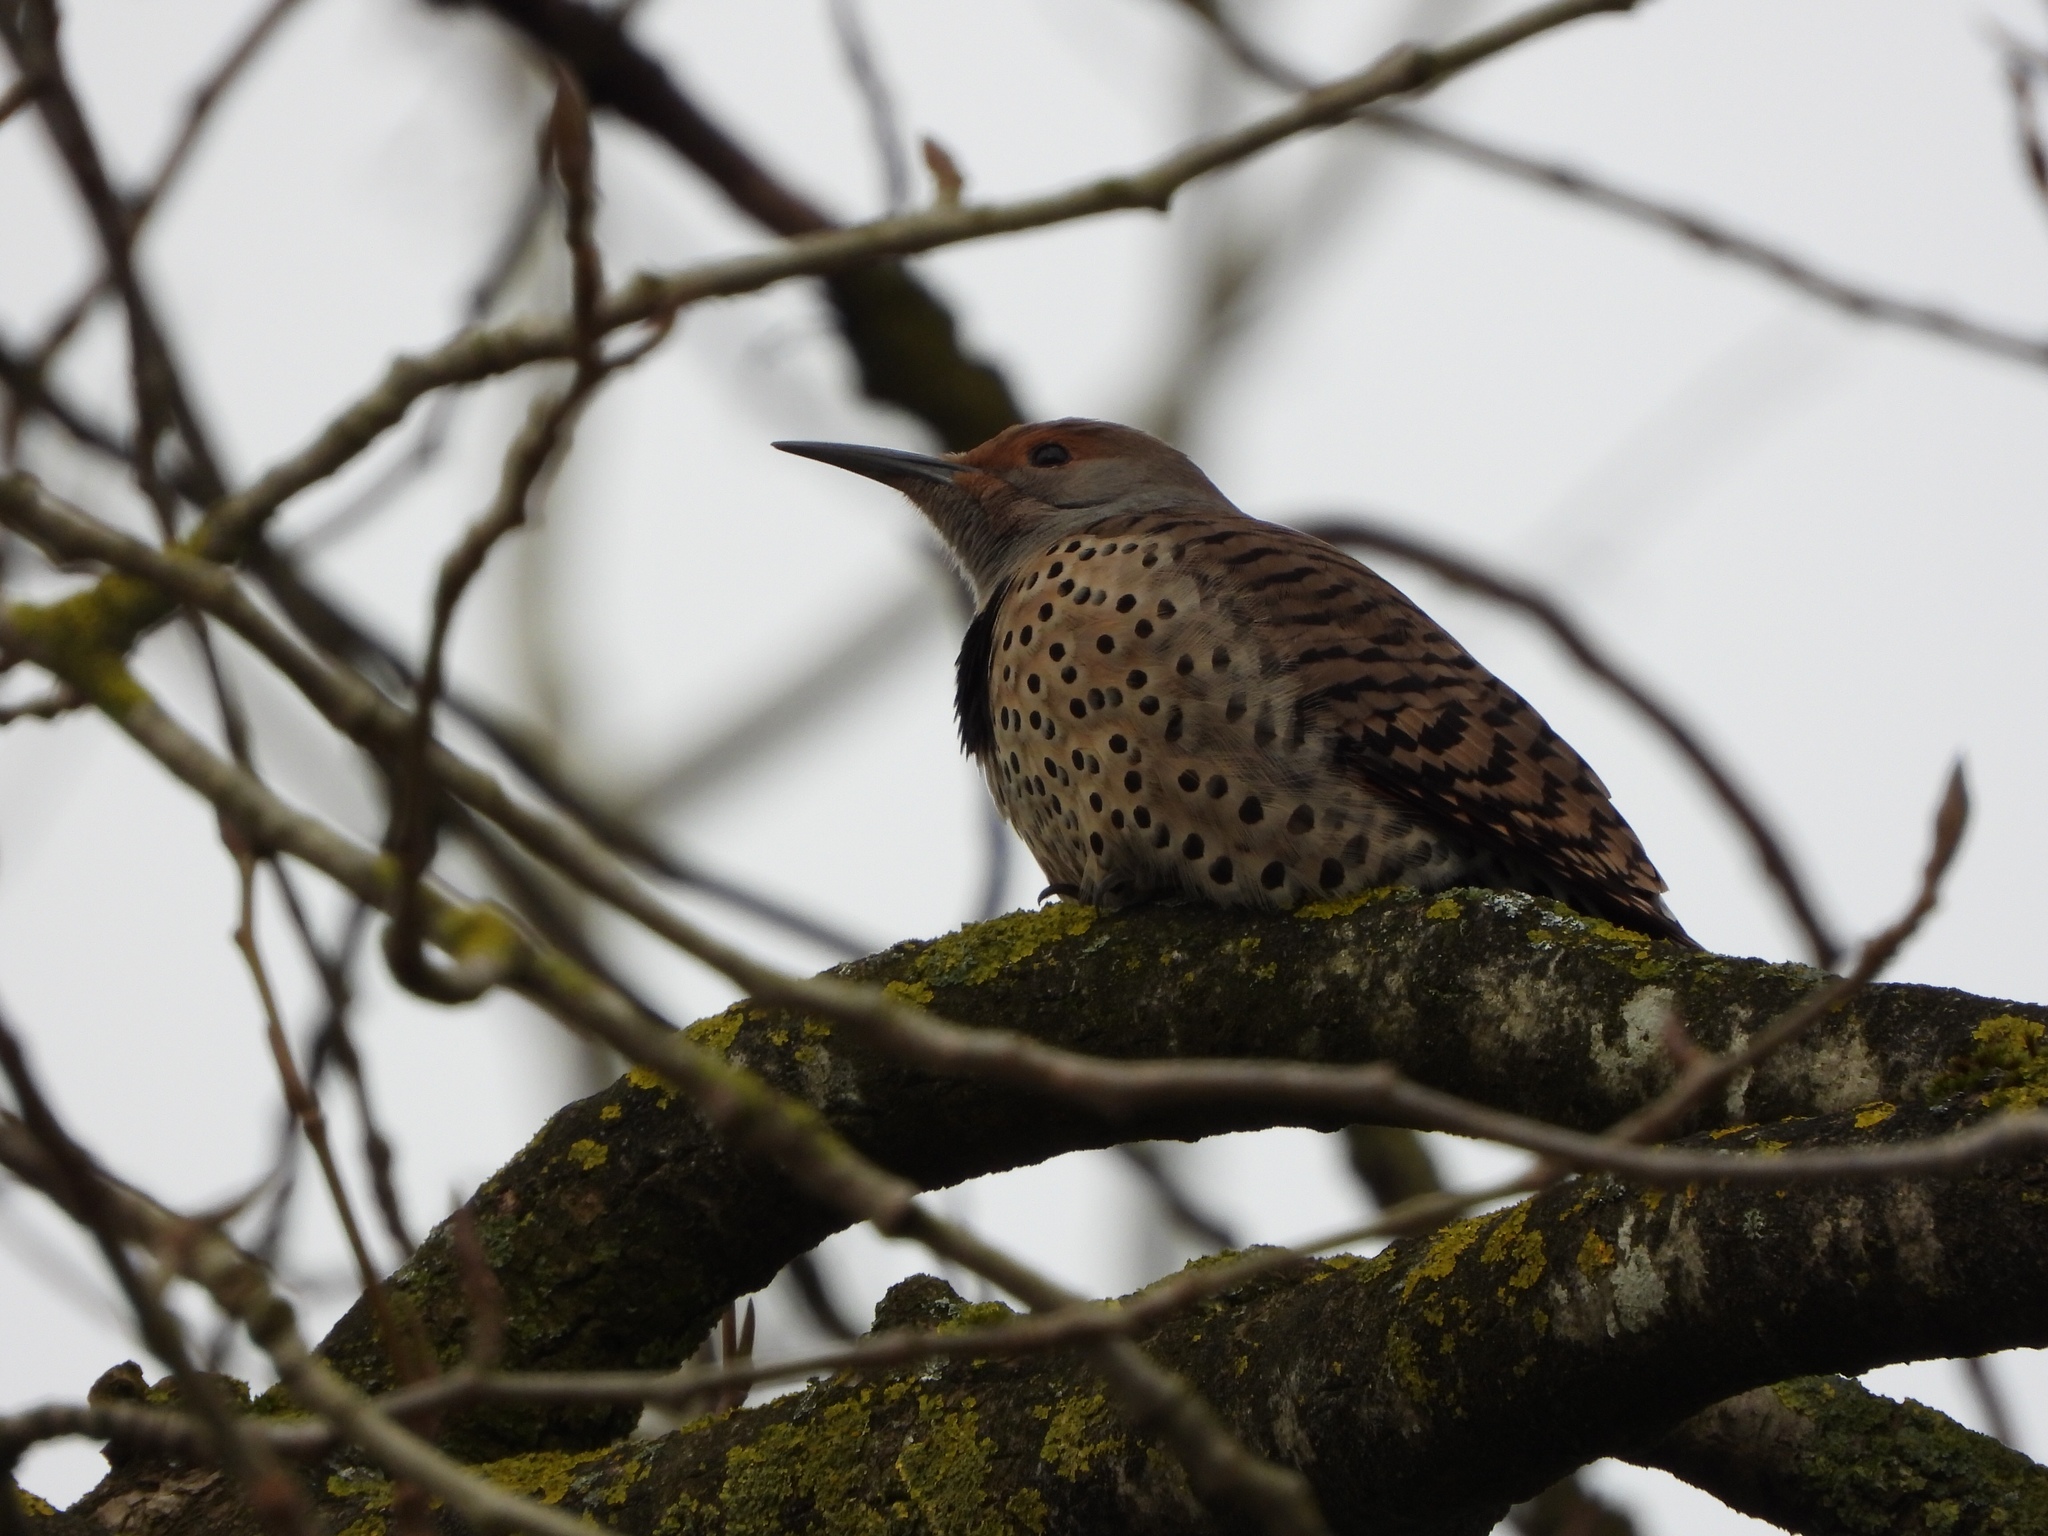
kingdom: Animalia
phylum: Chordata
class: Aves
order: Piciformes
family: Picidae
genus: Colaptes
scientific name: Colaptes auratus
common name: Northern flicker
